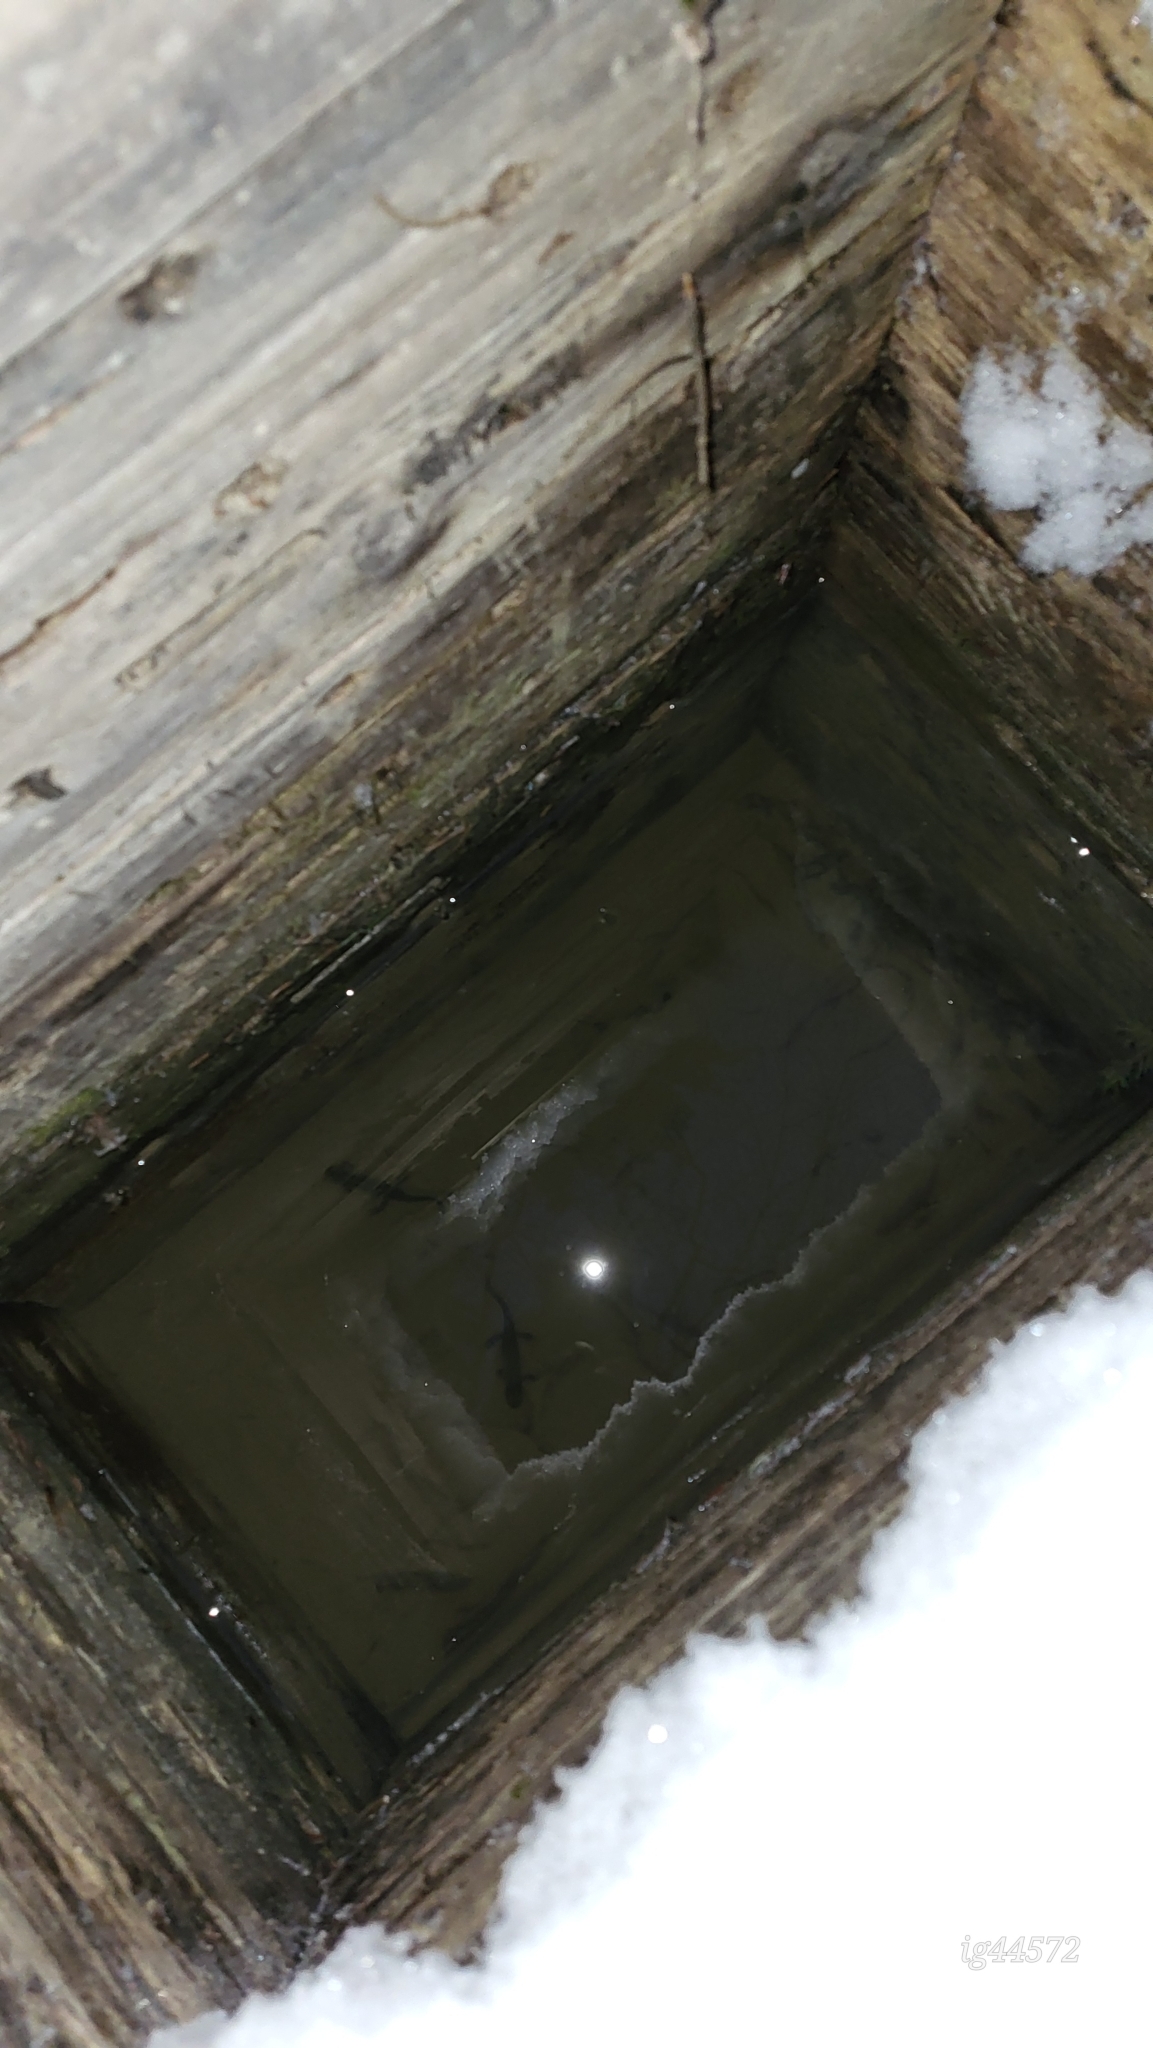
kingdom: Animalia
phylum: Chordata
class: Amphibia
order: Caudata
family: Salamandridae
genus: Lissotriton
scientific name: Lissotriton montandoni
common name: Carpathian newt
